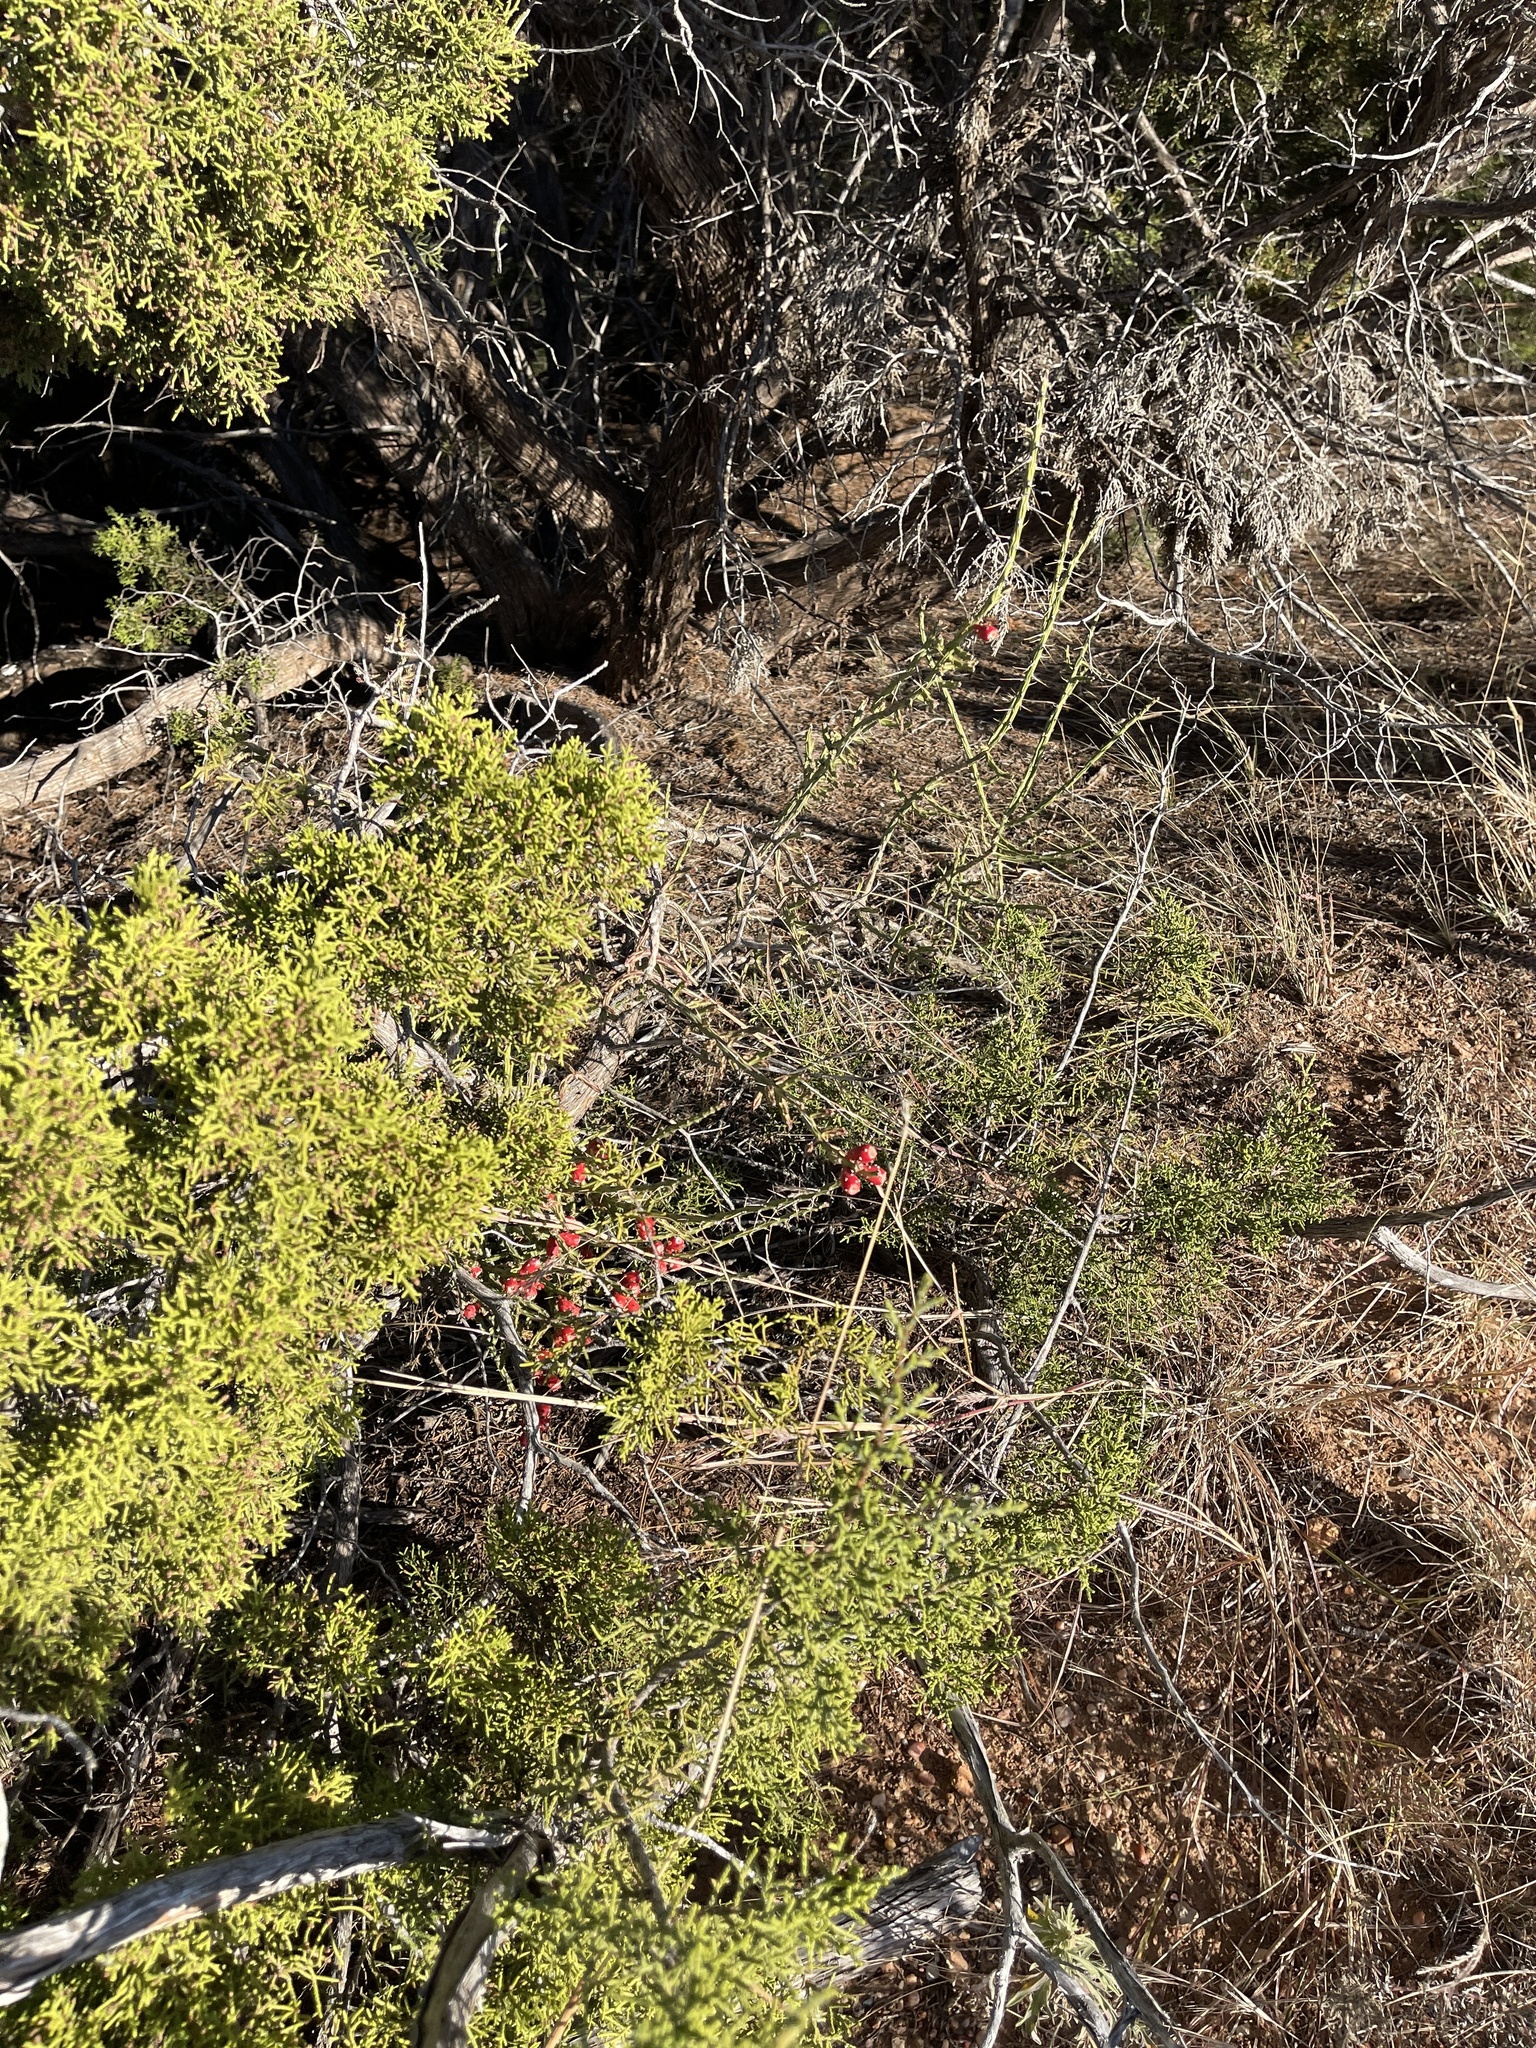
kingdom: Plantae
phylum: Tracheophyta
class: Magnoliopsida
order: Caryophyllales
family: Cactaceae
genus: Cylindropuntia
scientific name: Cylindropuntia leptocaulis
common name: Christmas cactus
